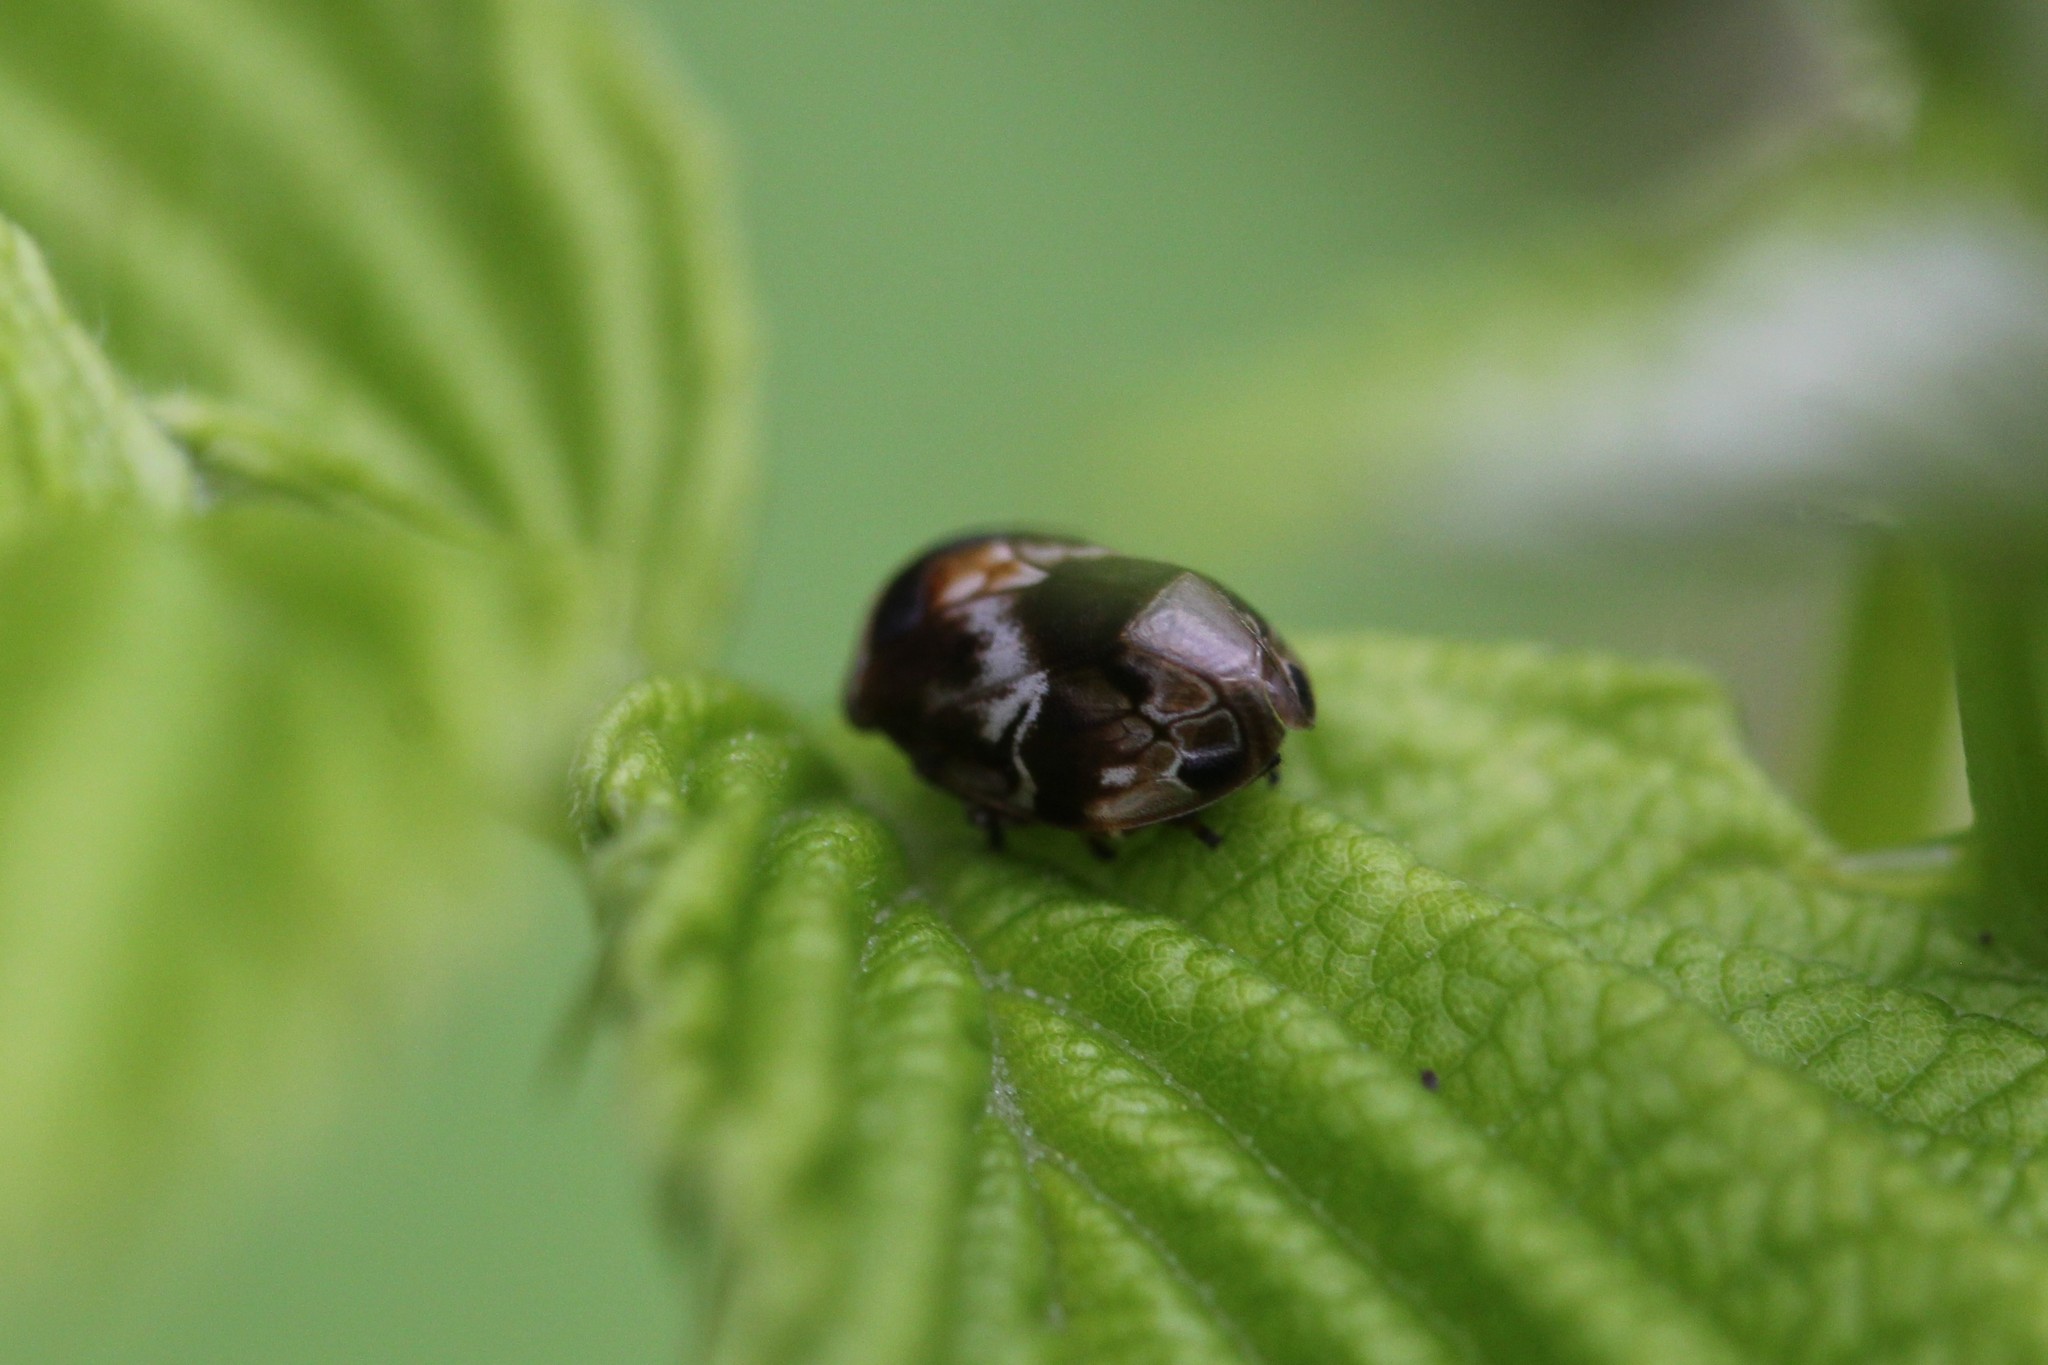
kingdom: Animalia
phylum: Arthropoda
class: Insecta
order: Hemiptera
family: Clastopteridae
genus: Clastoptera
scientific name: Clastoptera obtusa
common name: Alder spittlebug
